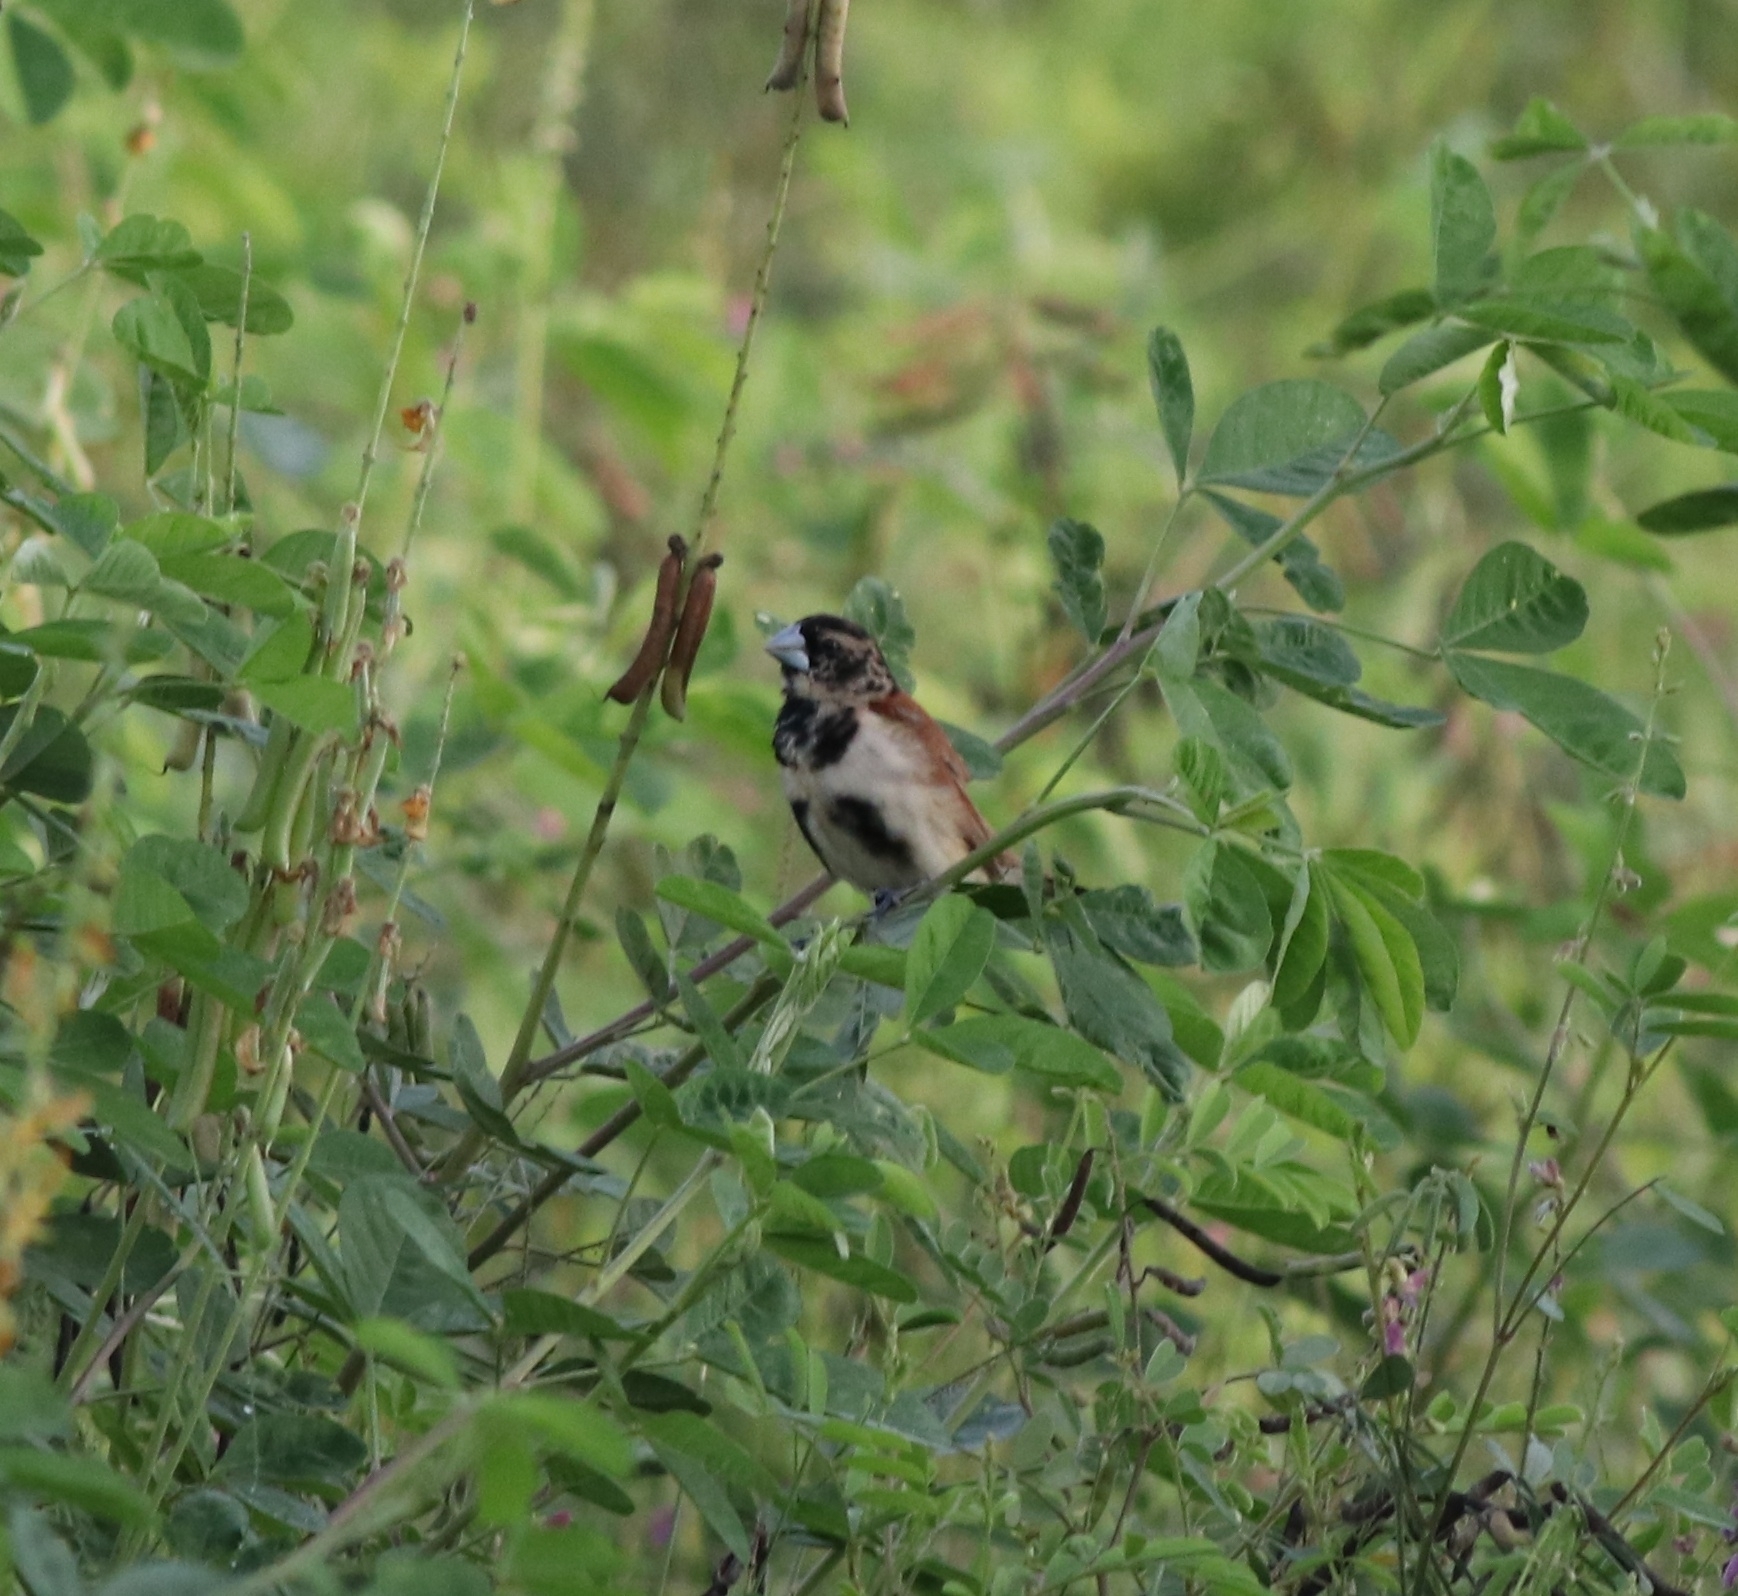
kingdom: Animalia
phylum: Chordata
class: Aves
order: Passeriformes
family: Estrildidae
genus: Lonchura
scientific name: Lonchura malacca
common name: Tricolored munia
